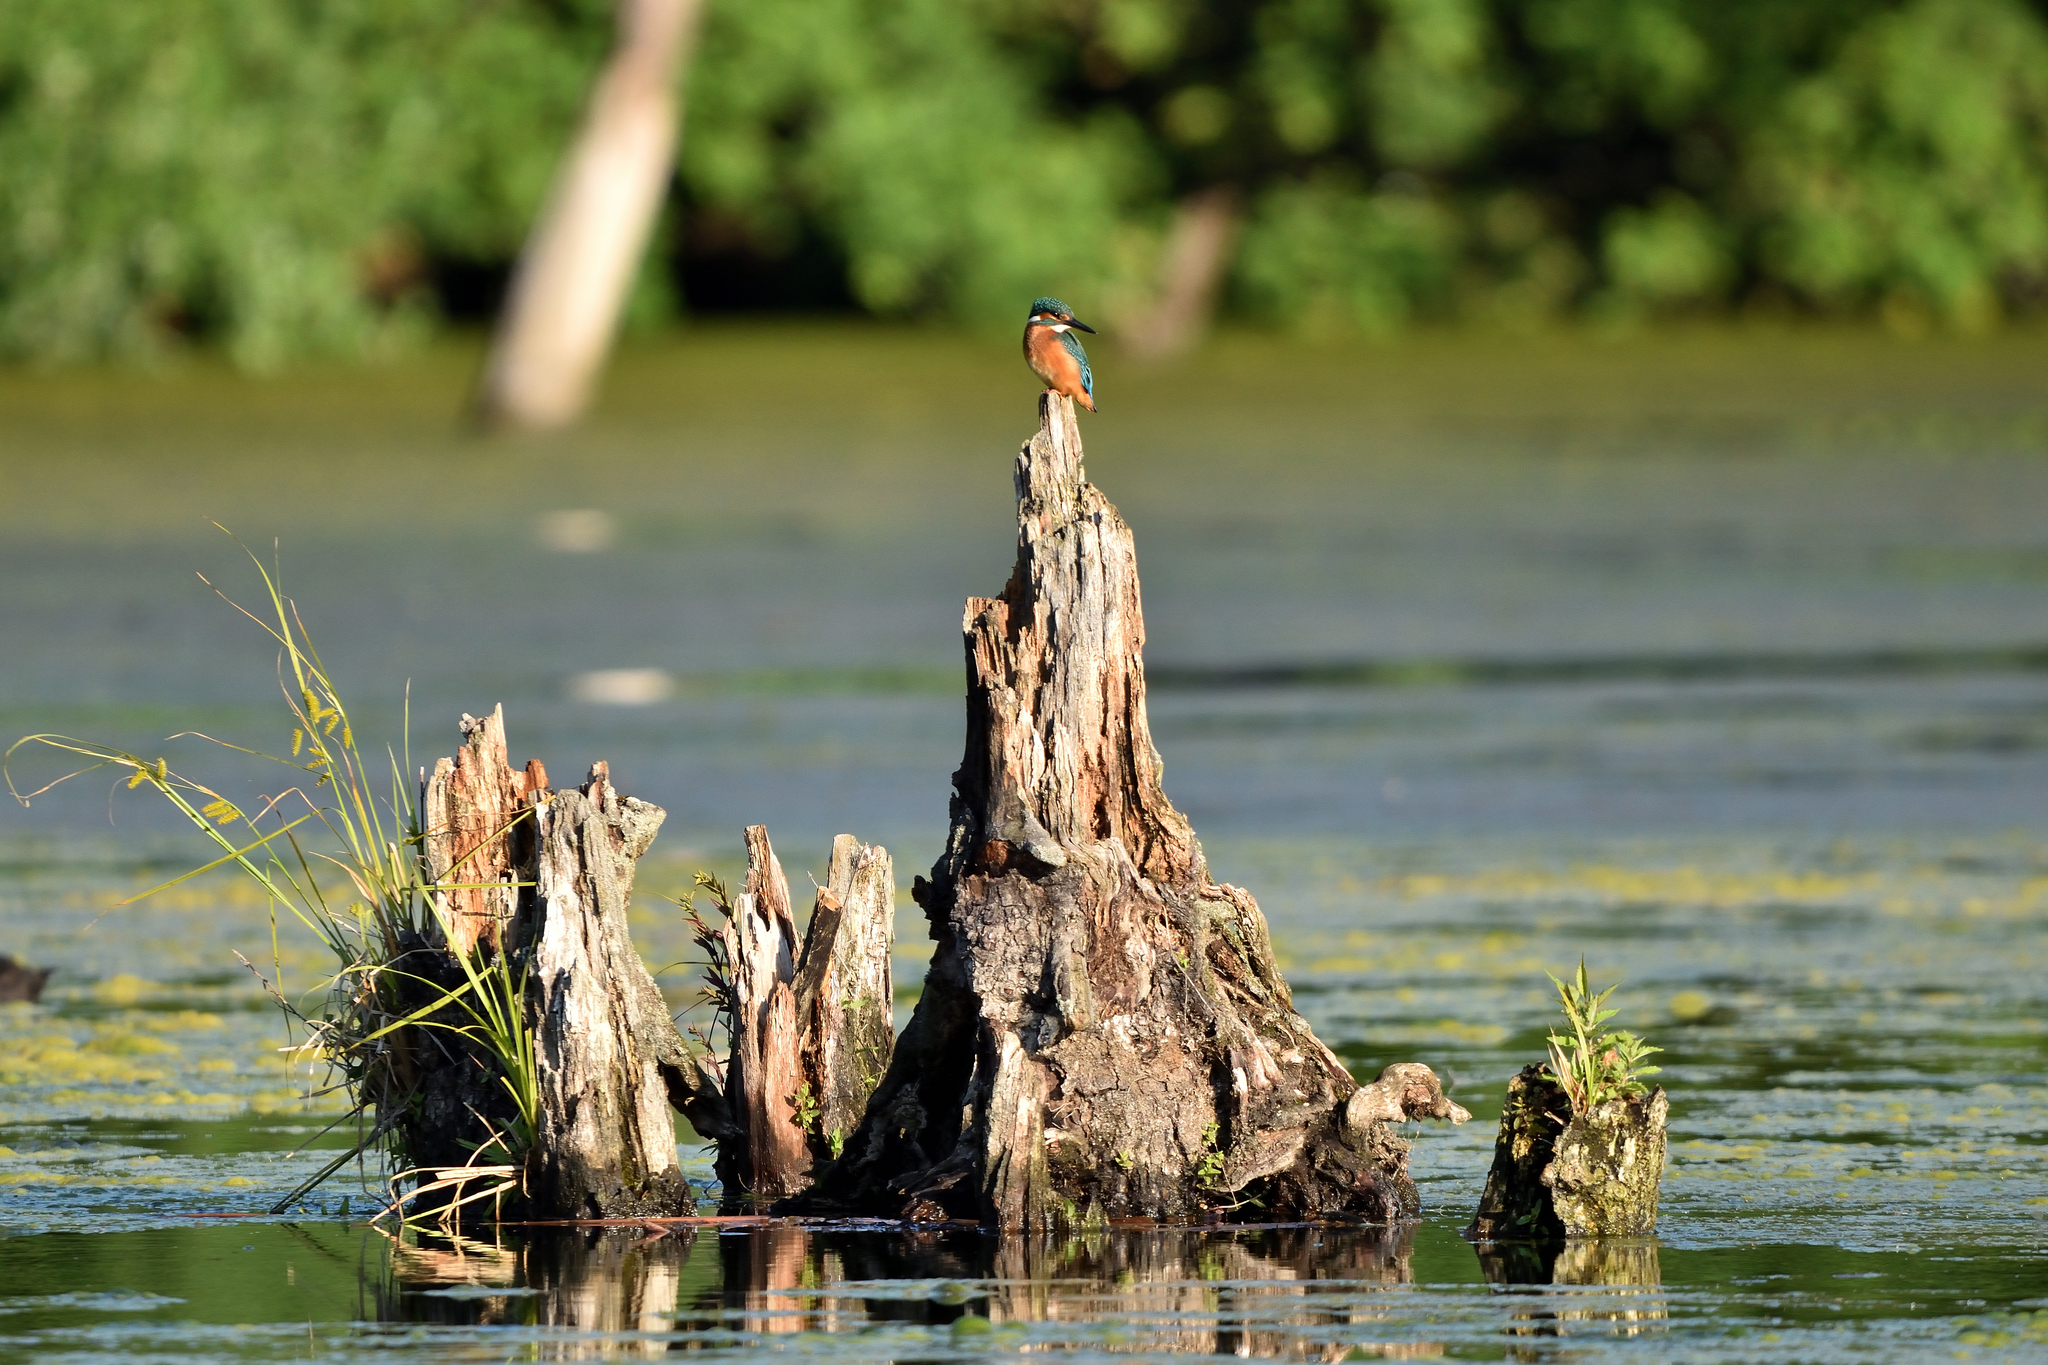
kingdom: Animalia
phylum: Chordata
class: Aves
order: Coraciiformes
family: Alcedinidae
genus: Alcedo
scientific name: Alcedo atthis
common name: Common kingfisher
